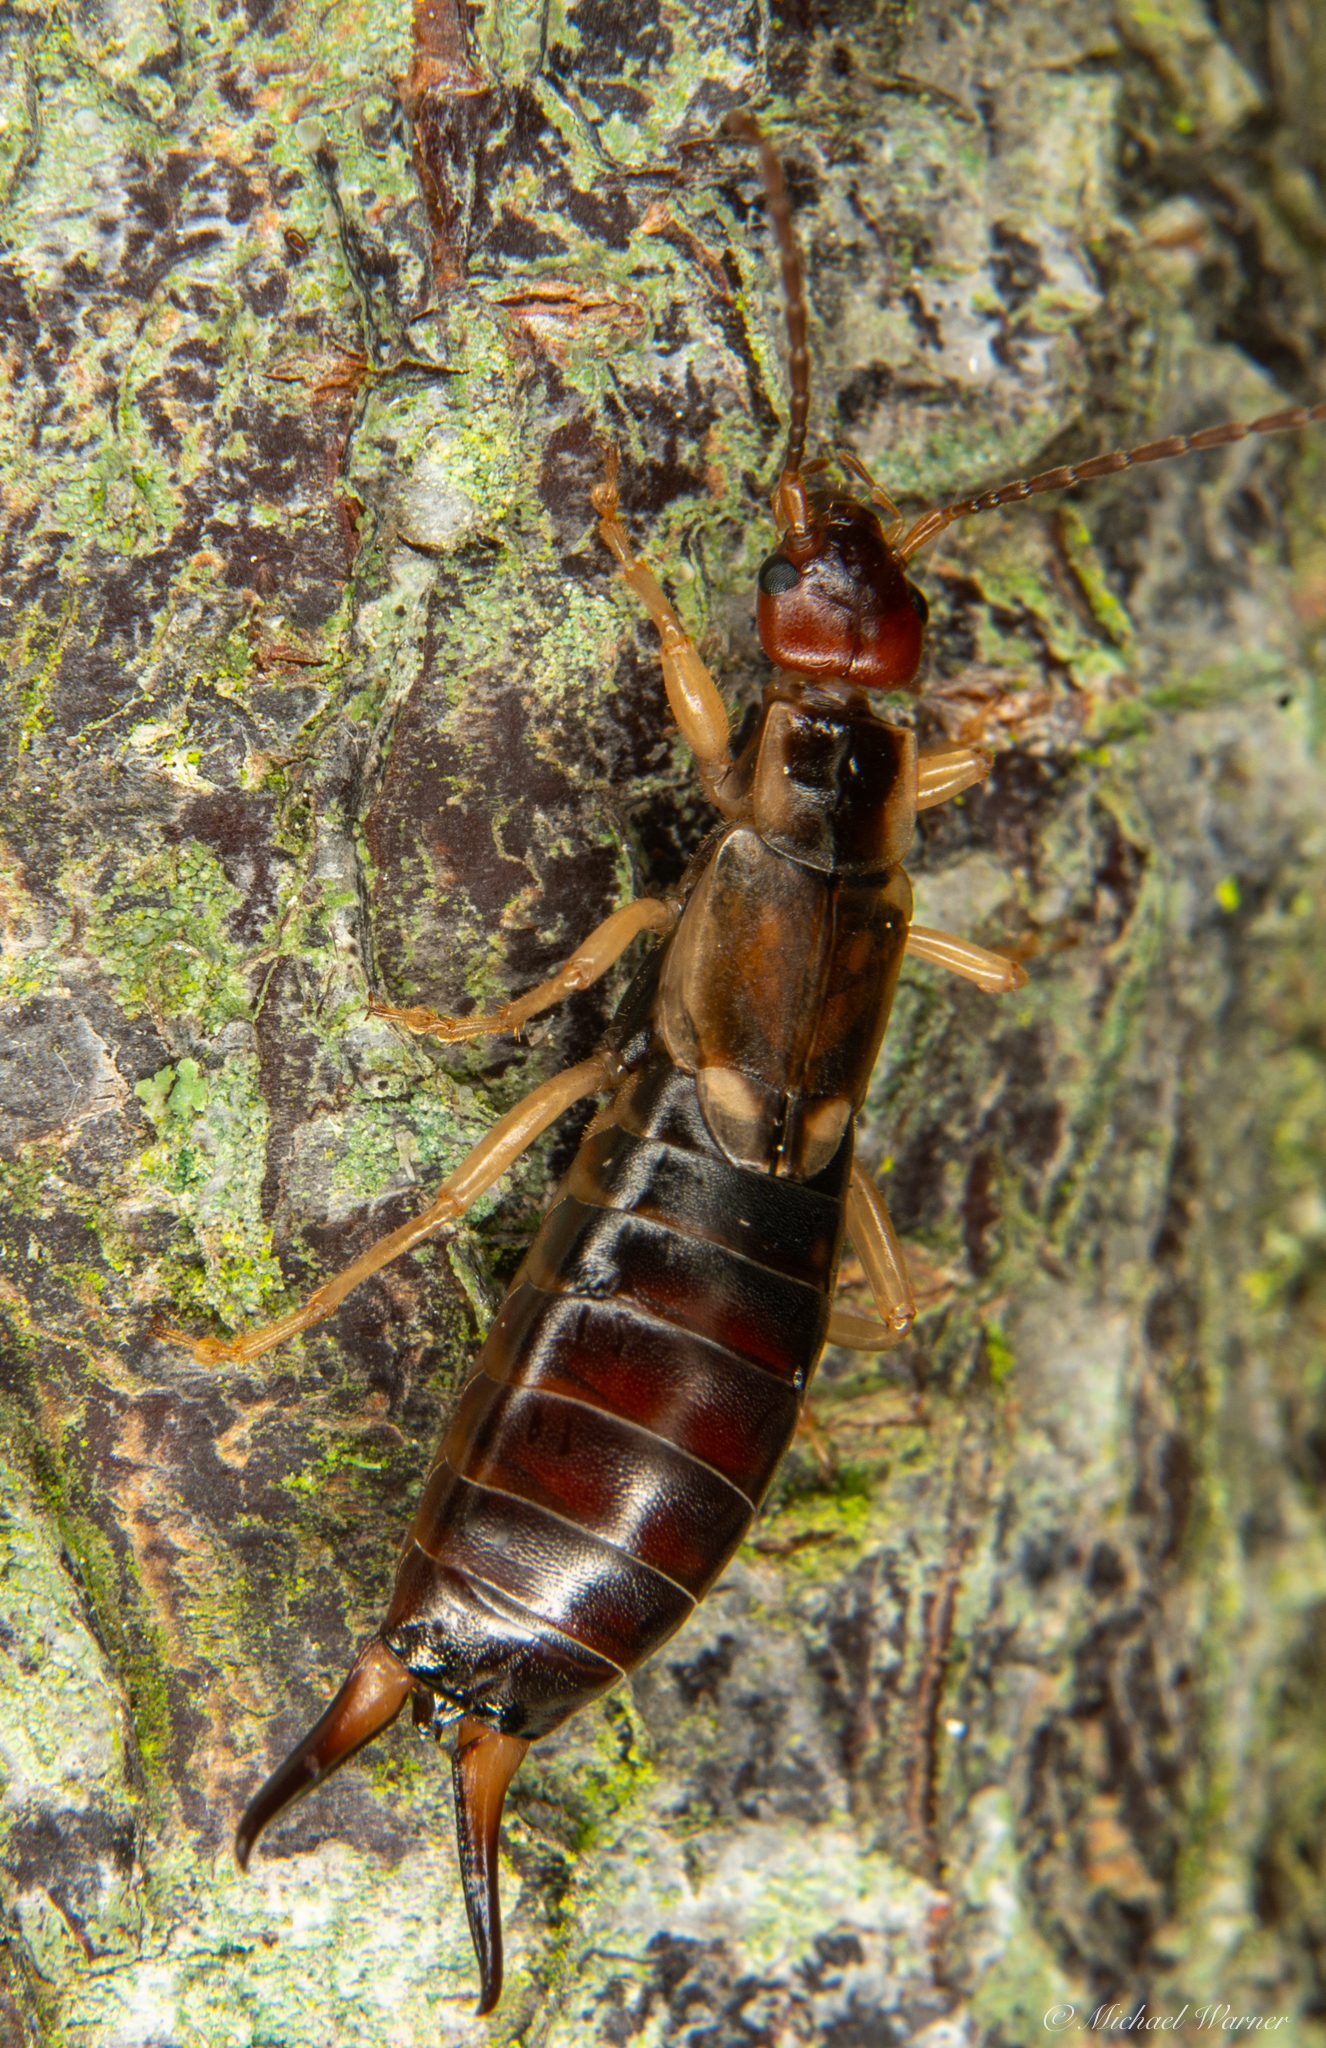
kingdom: Animalia
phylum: Arthropoda
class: Insecta
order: Dermaptera
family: Forficulidae
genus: Forficula
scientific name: Forficula dentata
